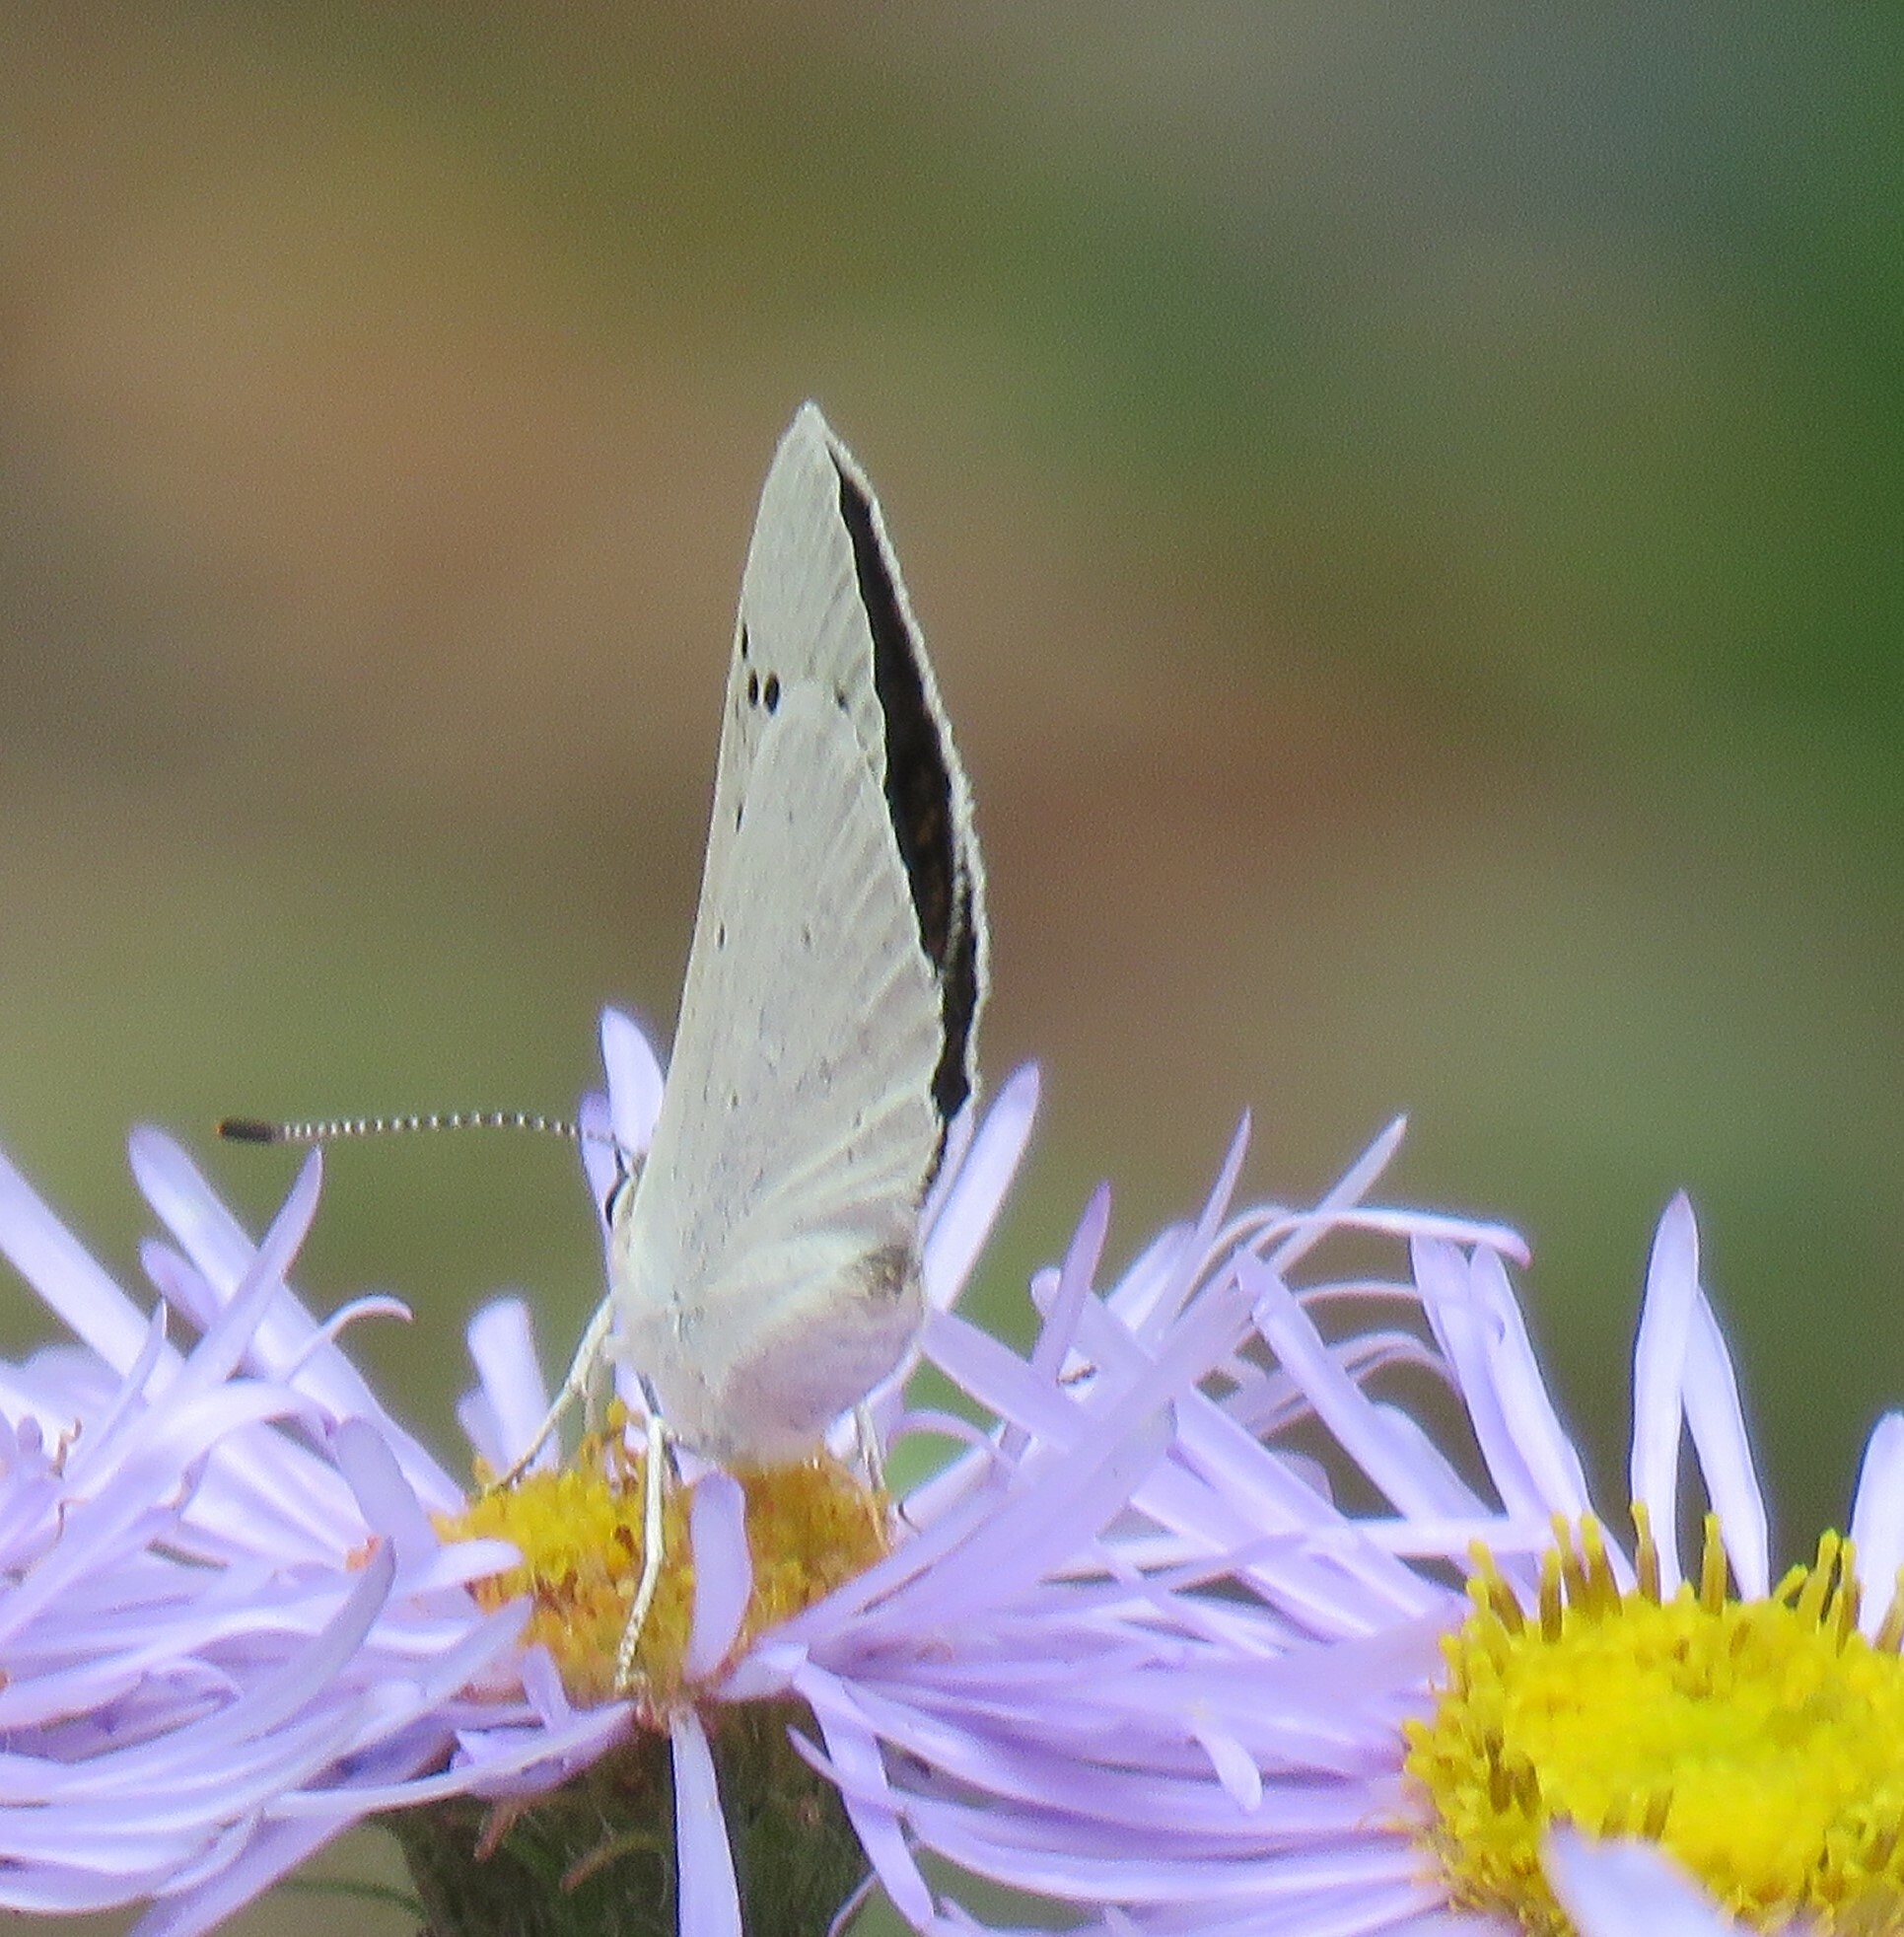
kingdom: Animalia
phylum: Arthropoda
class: Insecta
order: Lepidoptera
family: Lycaenidae
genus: Tharsalea
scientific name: Tharsalea rubidus
